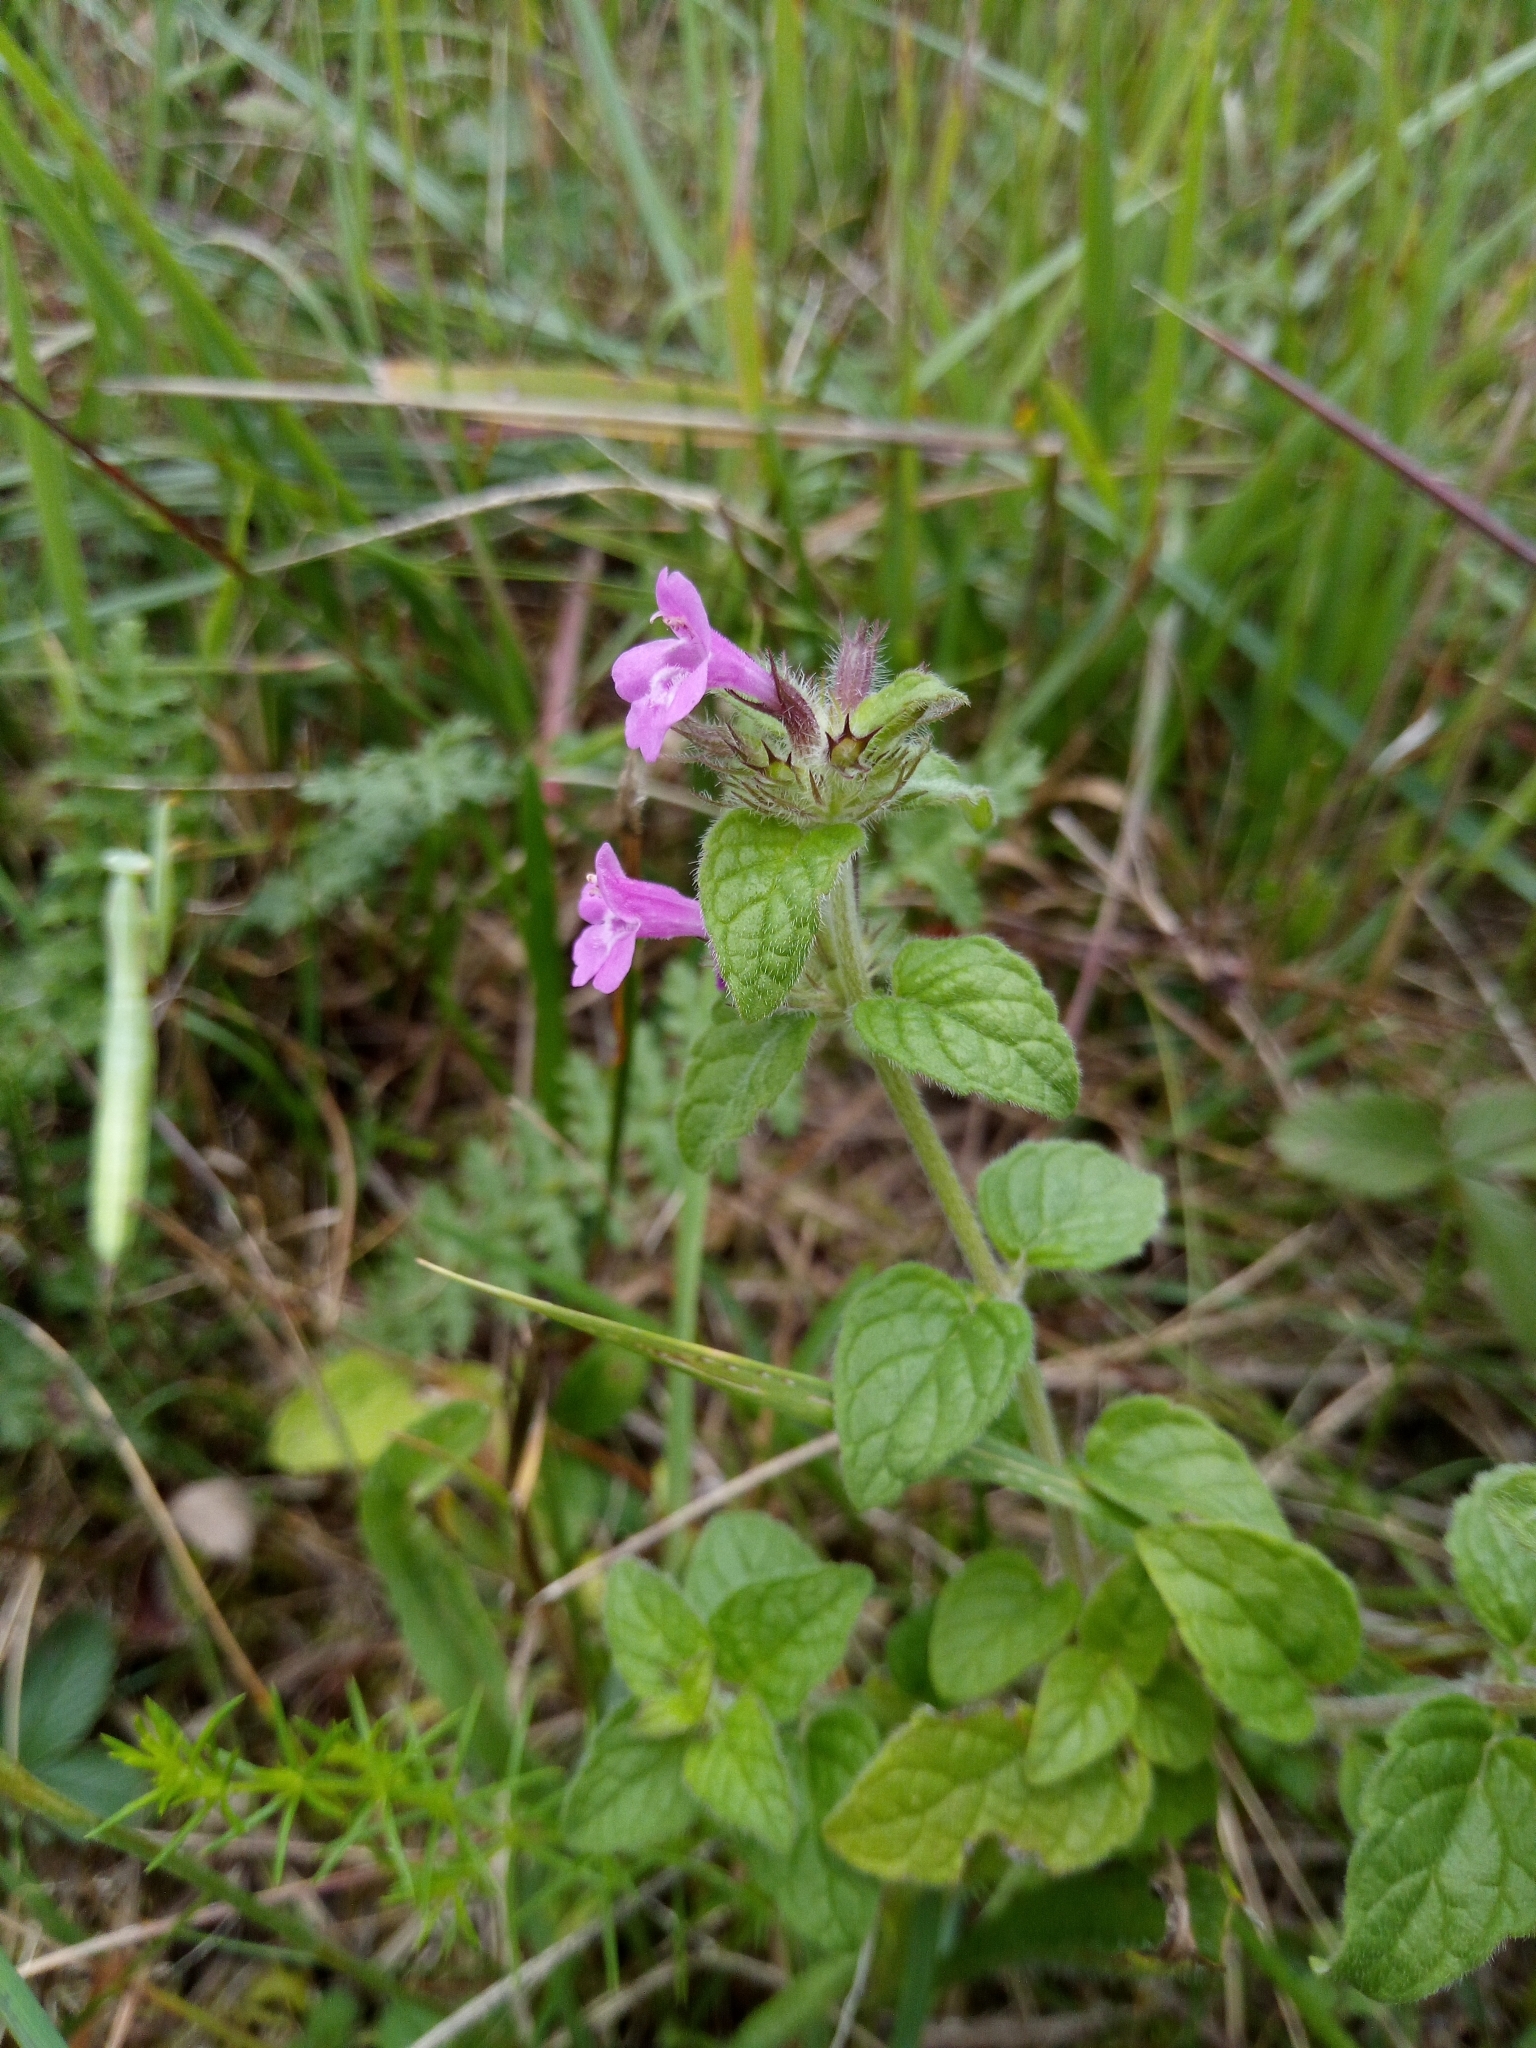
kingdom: Plantae
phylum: Tracheophyta
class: Magnoliopsida
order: Lamiales
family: Lamiaceae
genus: Clinopodium
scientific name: Clinopodium vulgare
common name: Wild basil
